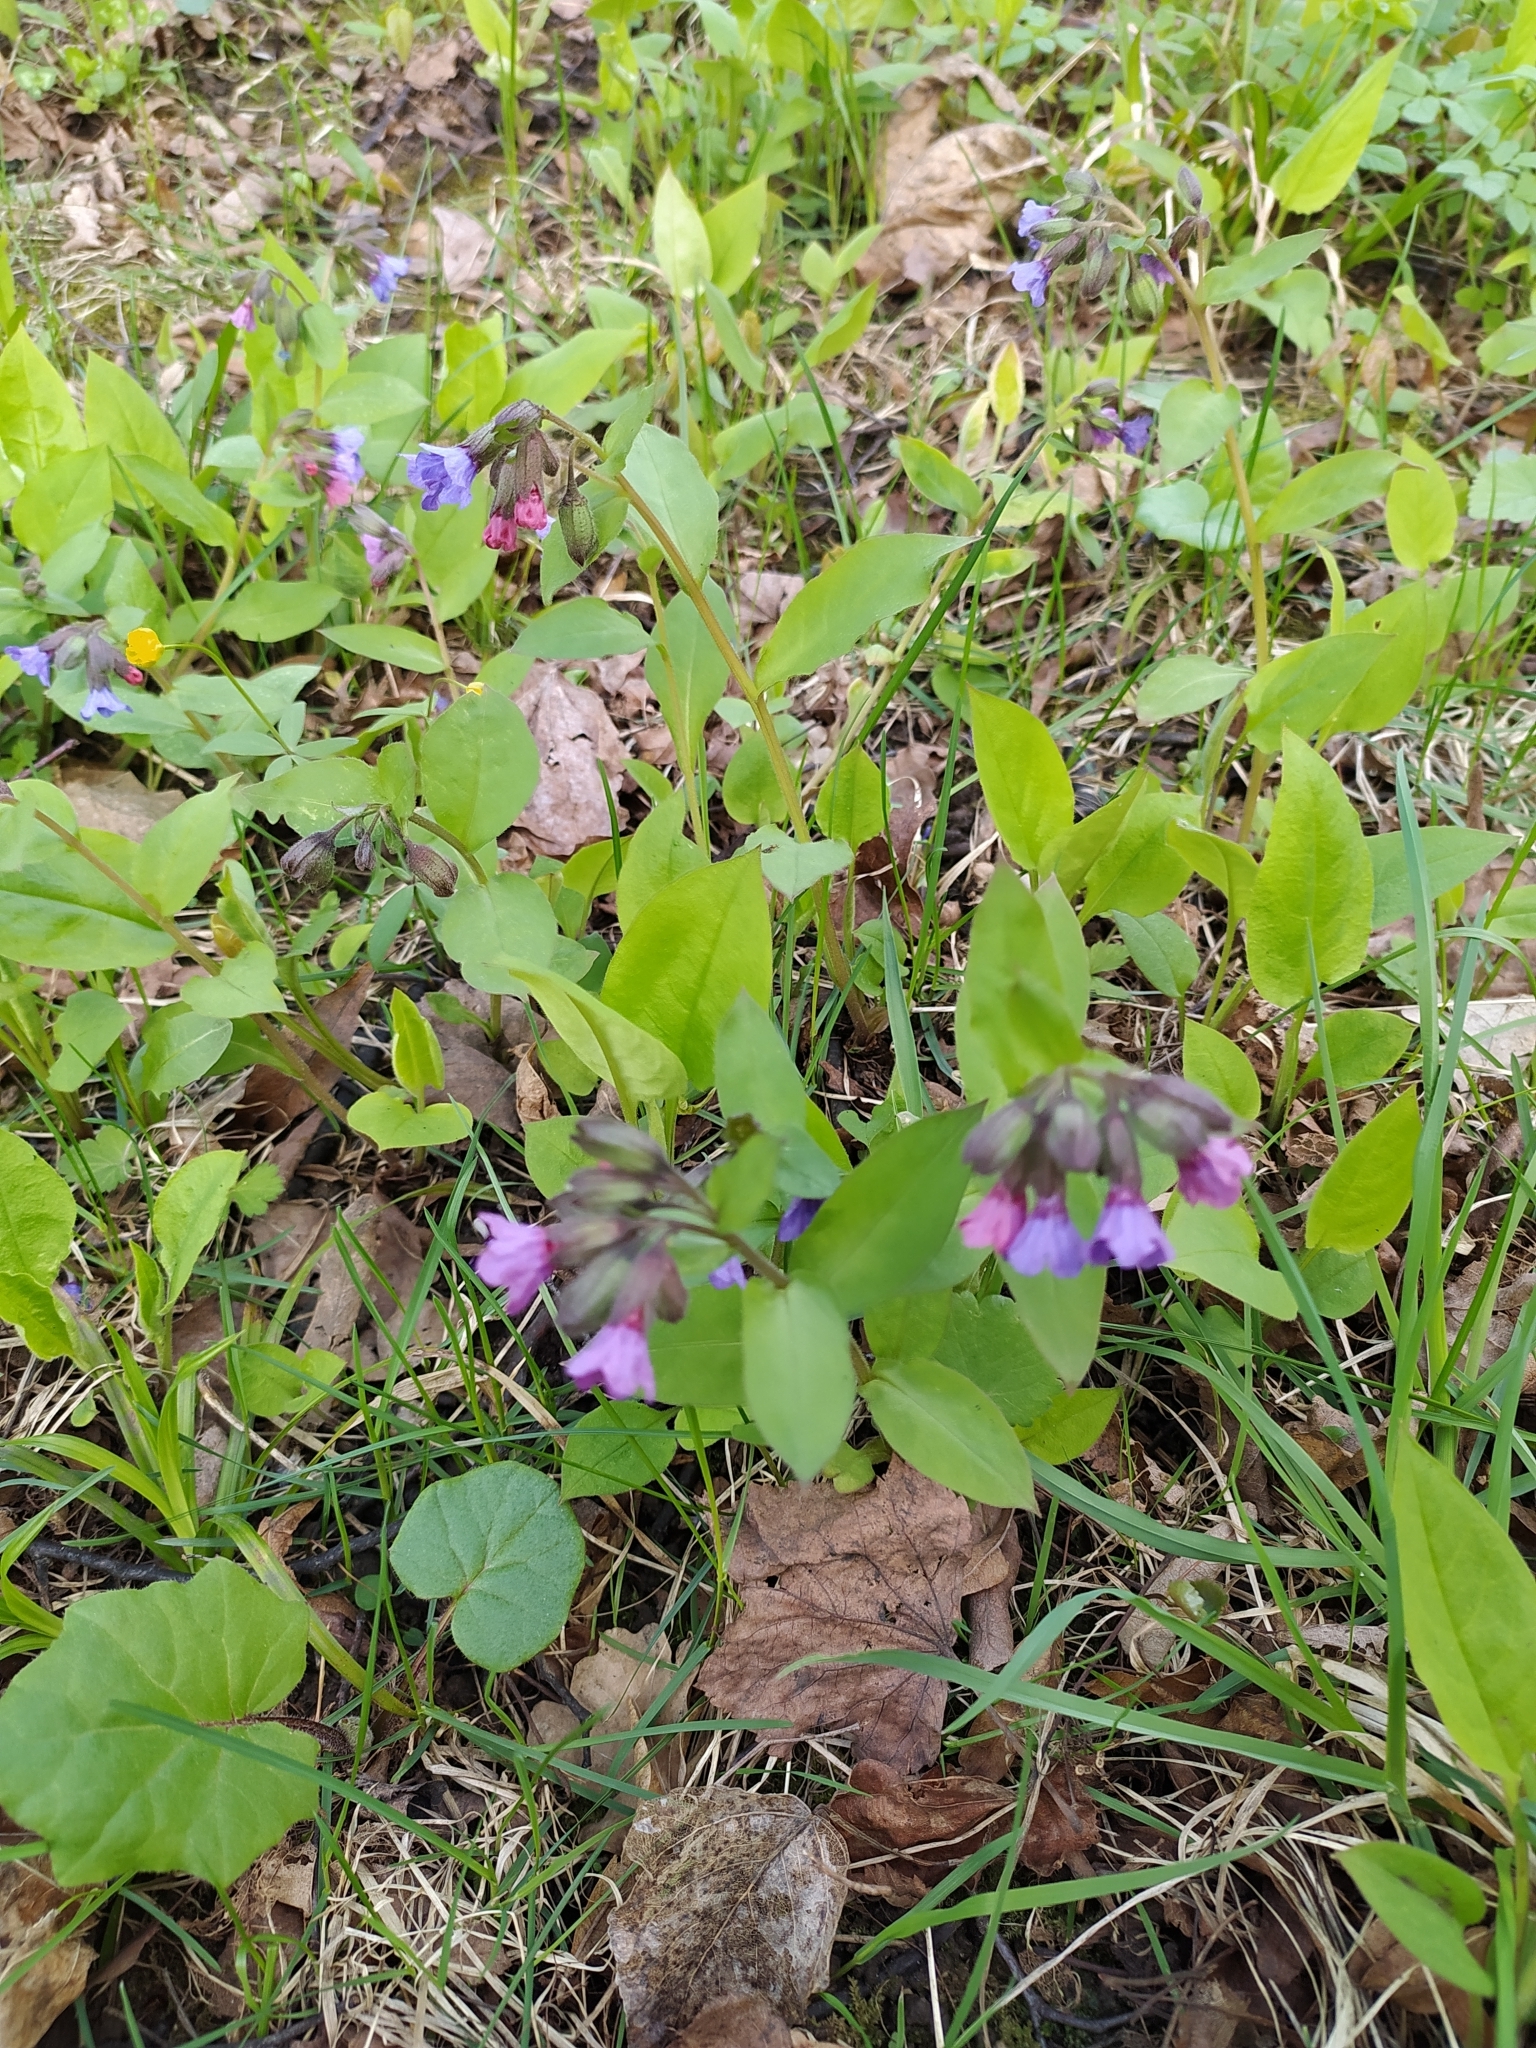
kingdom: Plantae
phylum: Tracheophyta
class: Magnoliopsida
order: Boraginales
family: Boraginaceae
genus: Pulmonaria
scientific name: Pulmonaria obscura
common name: Suffolk lungwort
